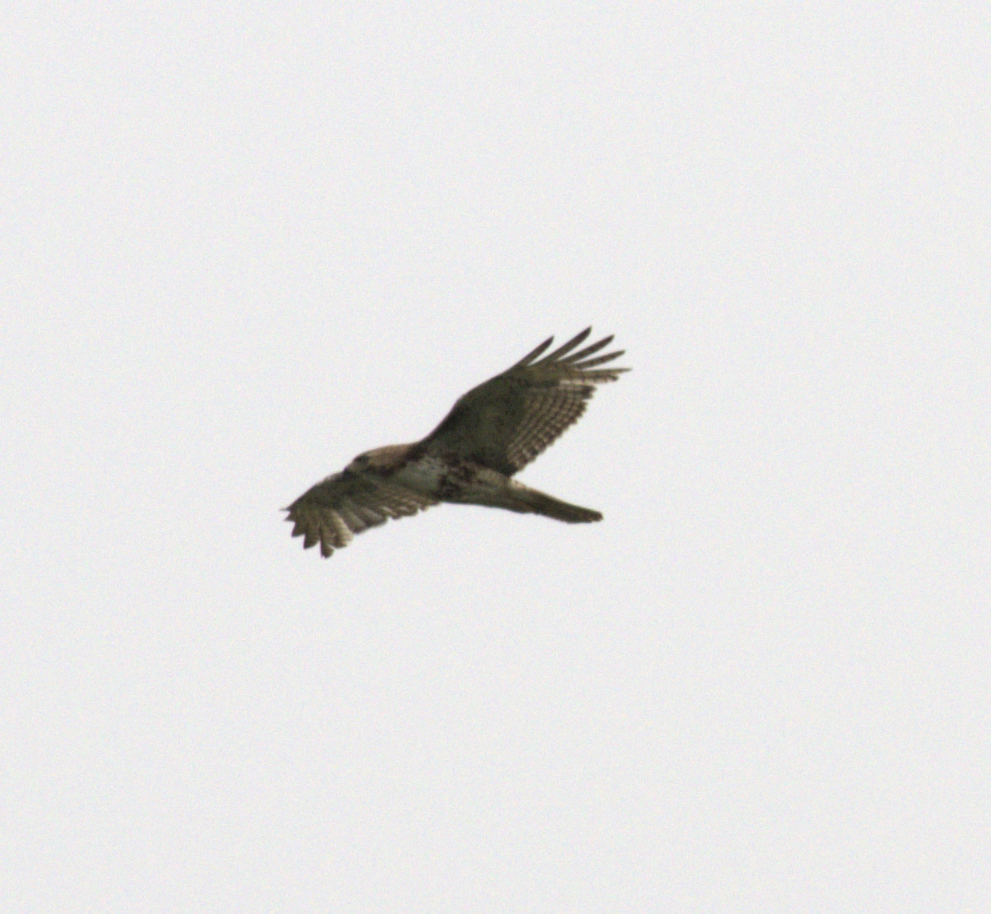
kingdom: Animalia
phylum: Chordata
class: Aves
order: Accipitriformes
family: Accipitridae
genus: Buteo
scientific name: Buteo jamaicensis
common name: Red-tailed hawk
